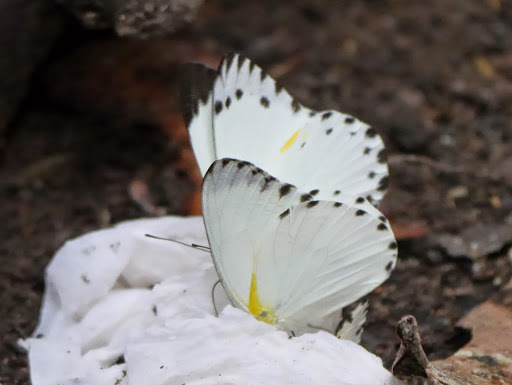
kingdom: Animalia
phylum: Arthropoda
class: Insecta
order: Lepidoptera
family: Pieridae
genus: Belenois
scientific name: Belenois theuszi
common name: Central caper white
